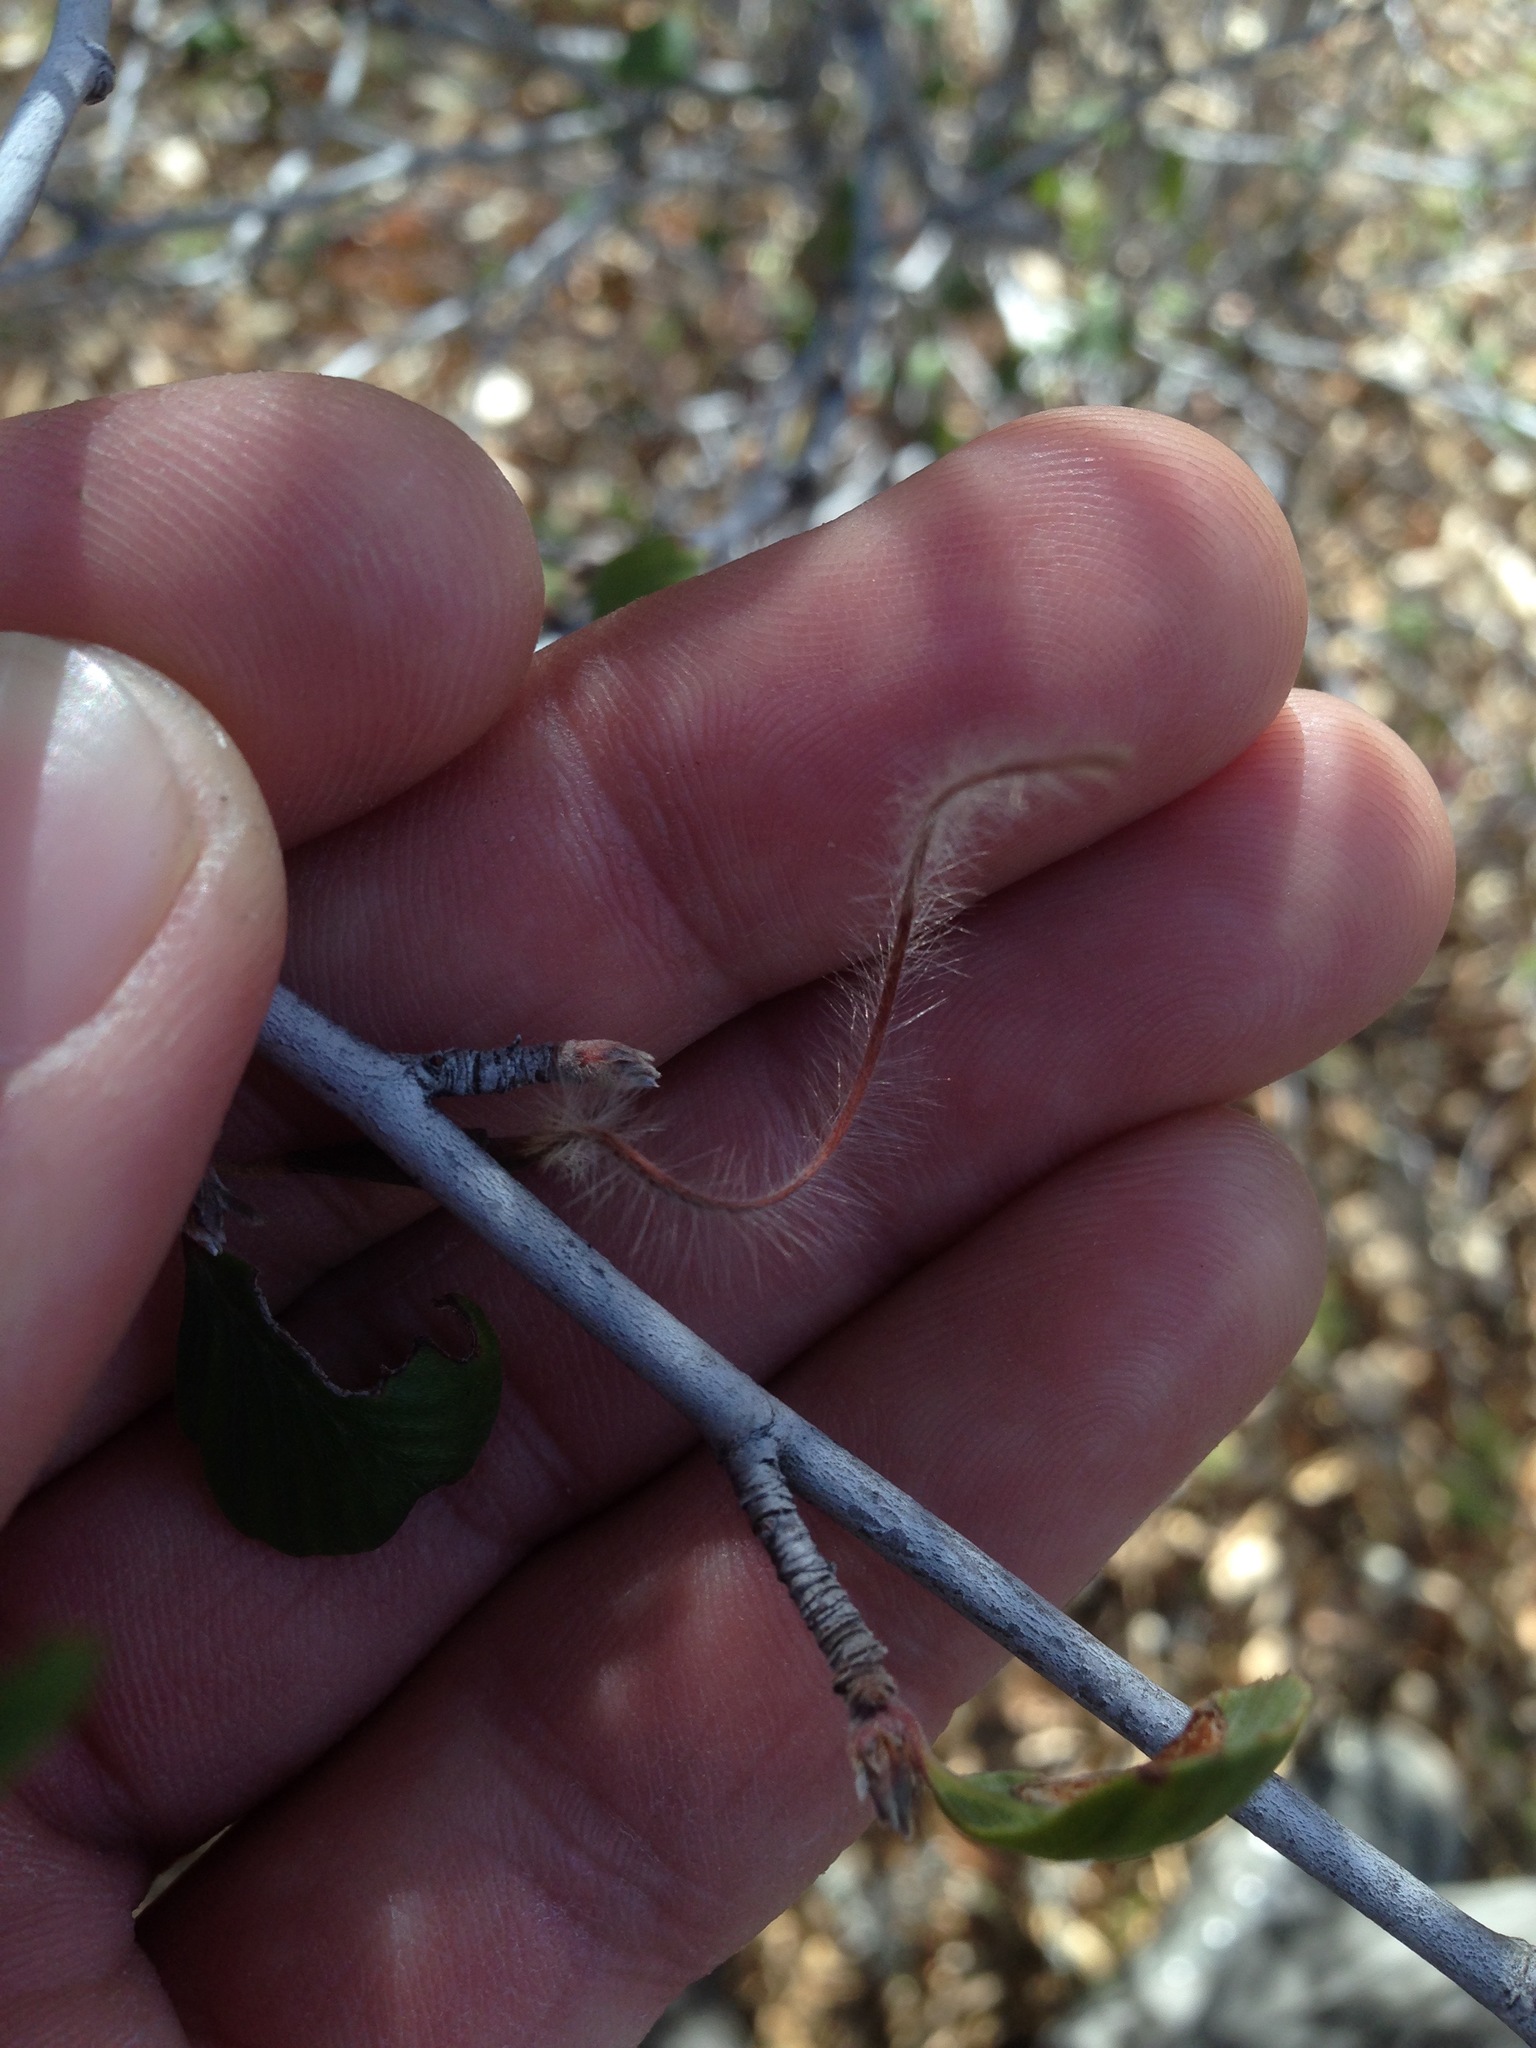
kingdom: Plantae
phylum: Tracheophyta
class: Magnoliopsida
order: Rosales
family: Rosaceae
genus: Cercocarpus
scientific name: Cercocarpus betuloides
